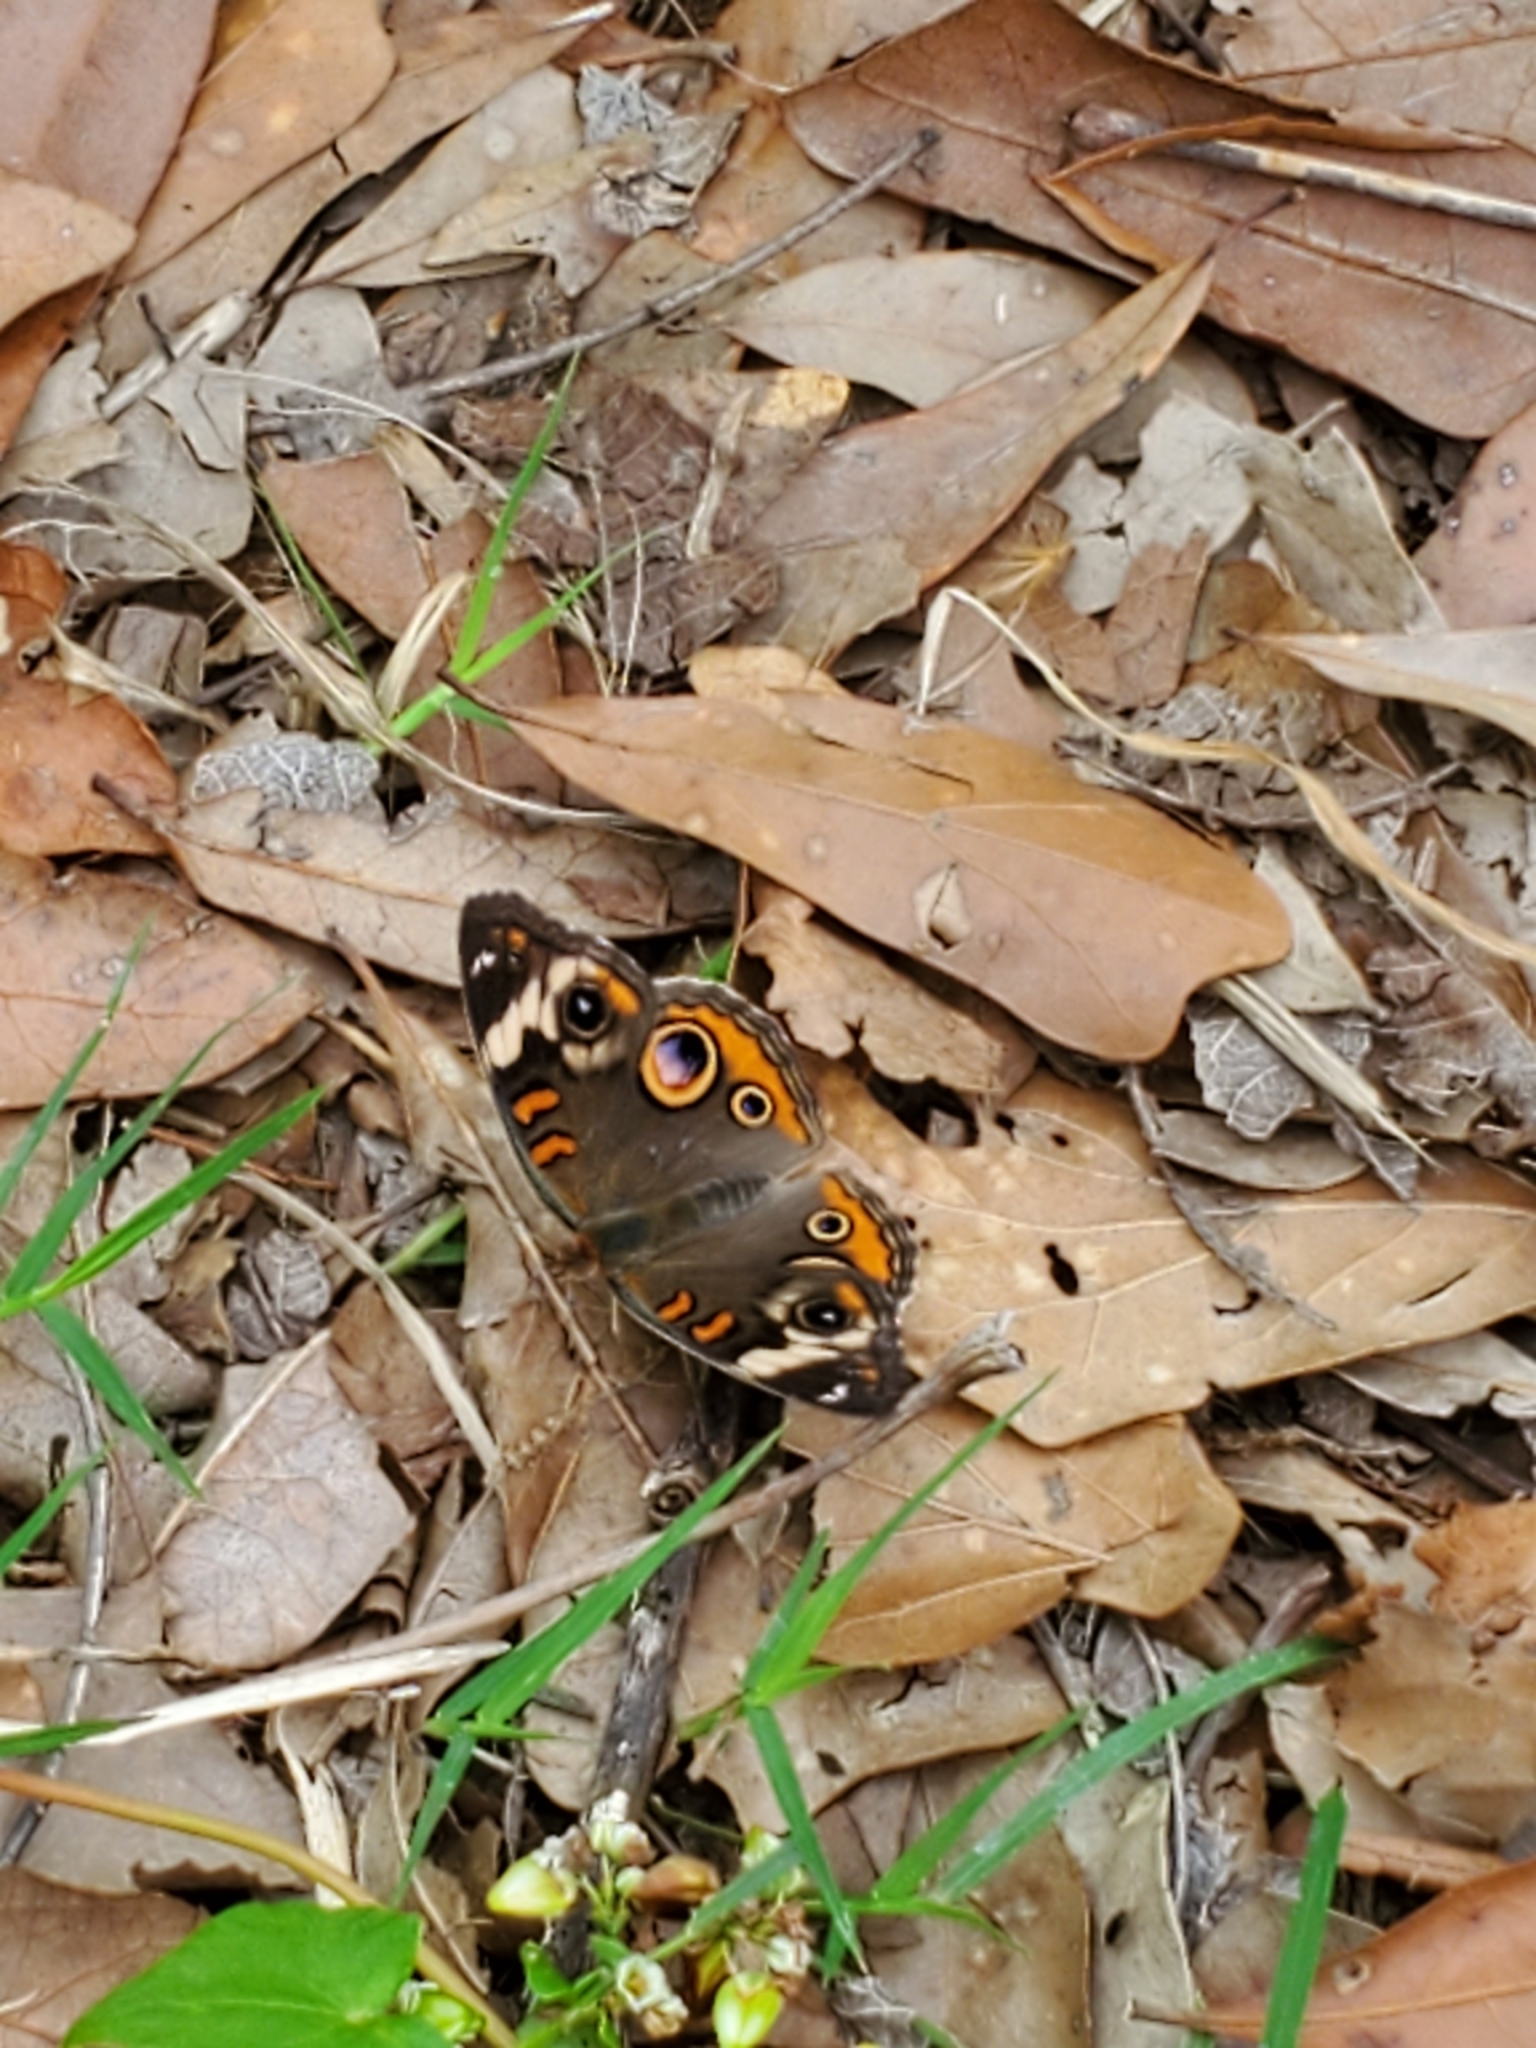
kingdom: Animalia
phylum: Arthropoda
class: Insecta
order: Lepidoptera
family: Nymphalidae
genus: Junonia
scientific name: Junonia coenia
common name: Common buckeye
